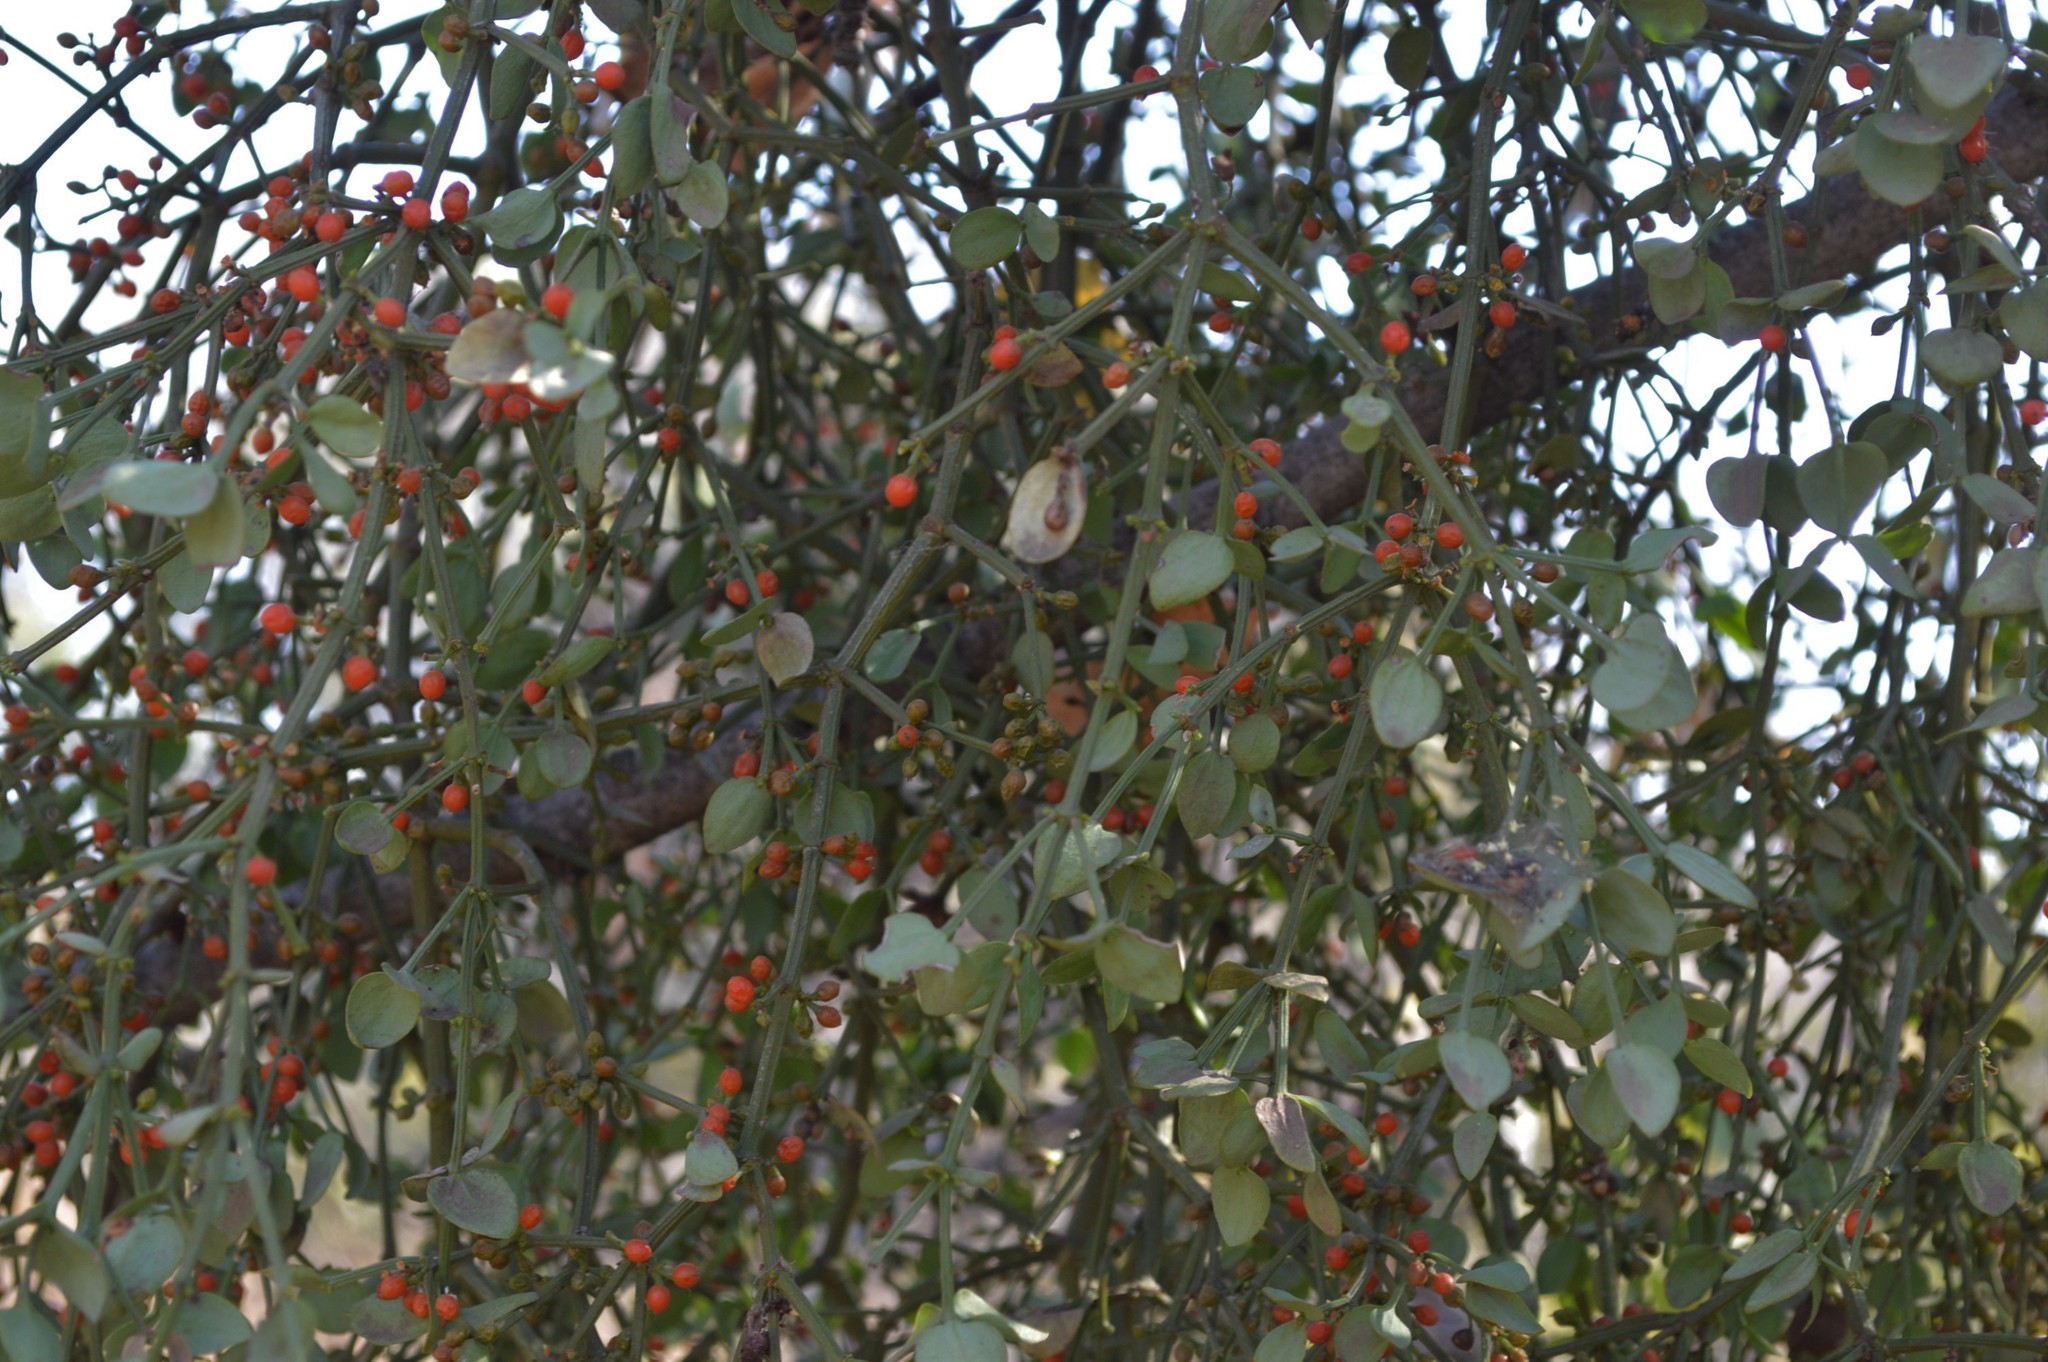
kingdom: Plantae
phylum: Tracheophyta
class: Magnoliopsida
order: Santalales
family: Viscaceae
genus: Viscum
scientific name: Viscum rotundifolium
